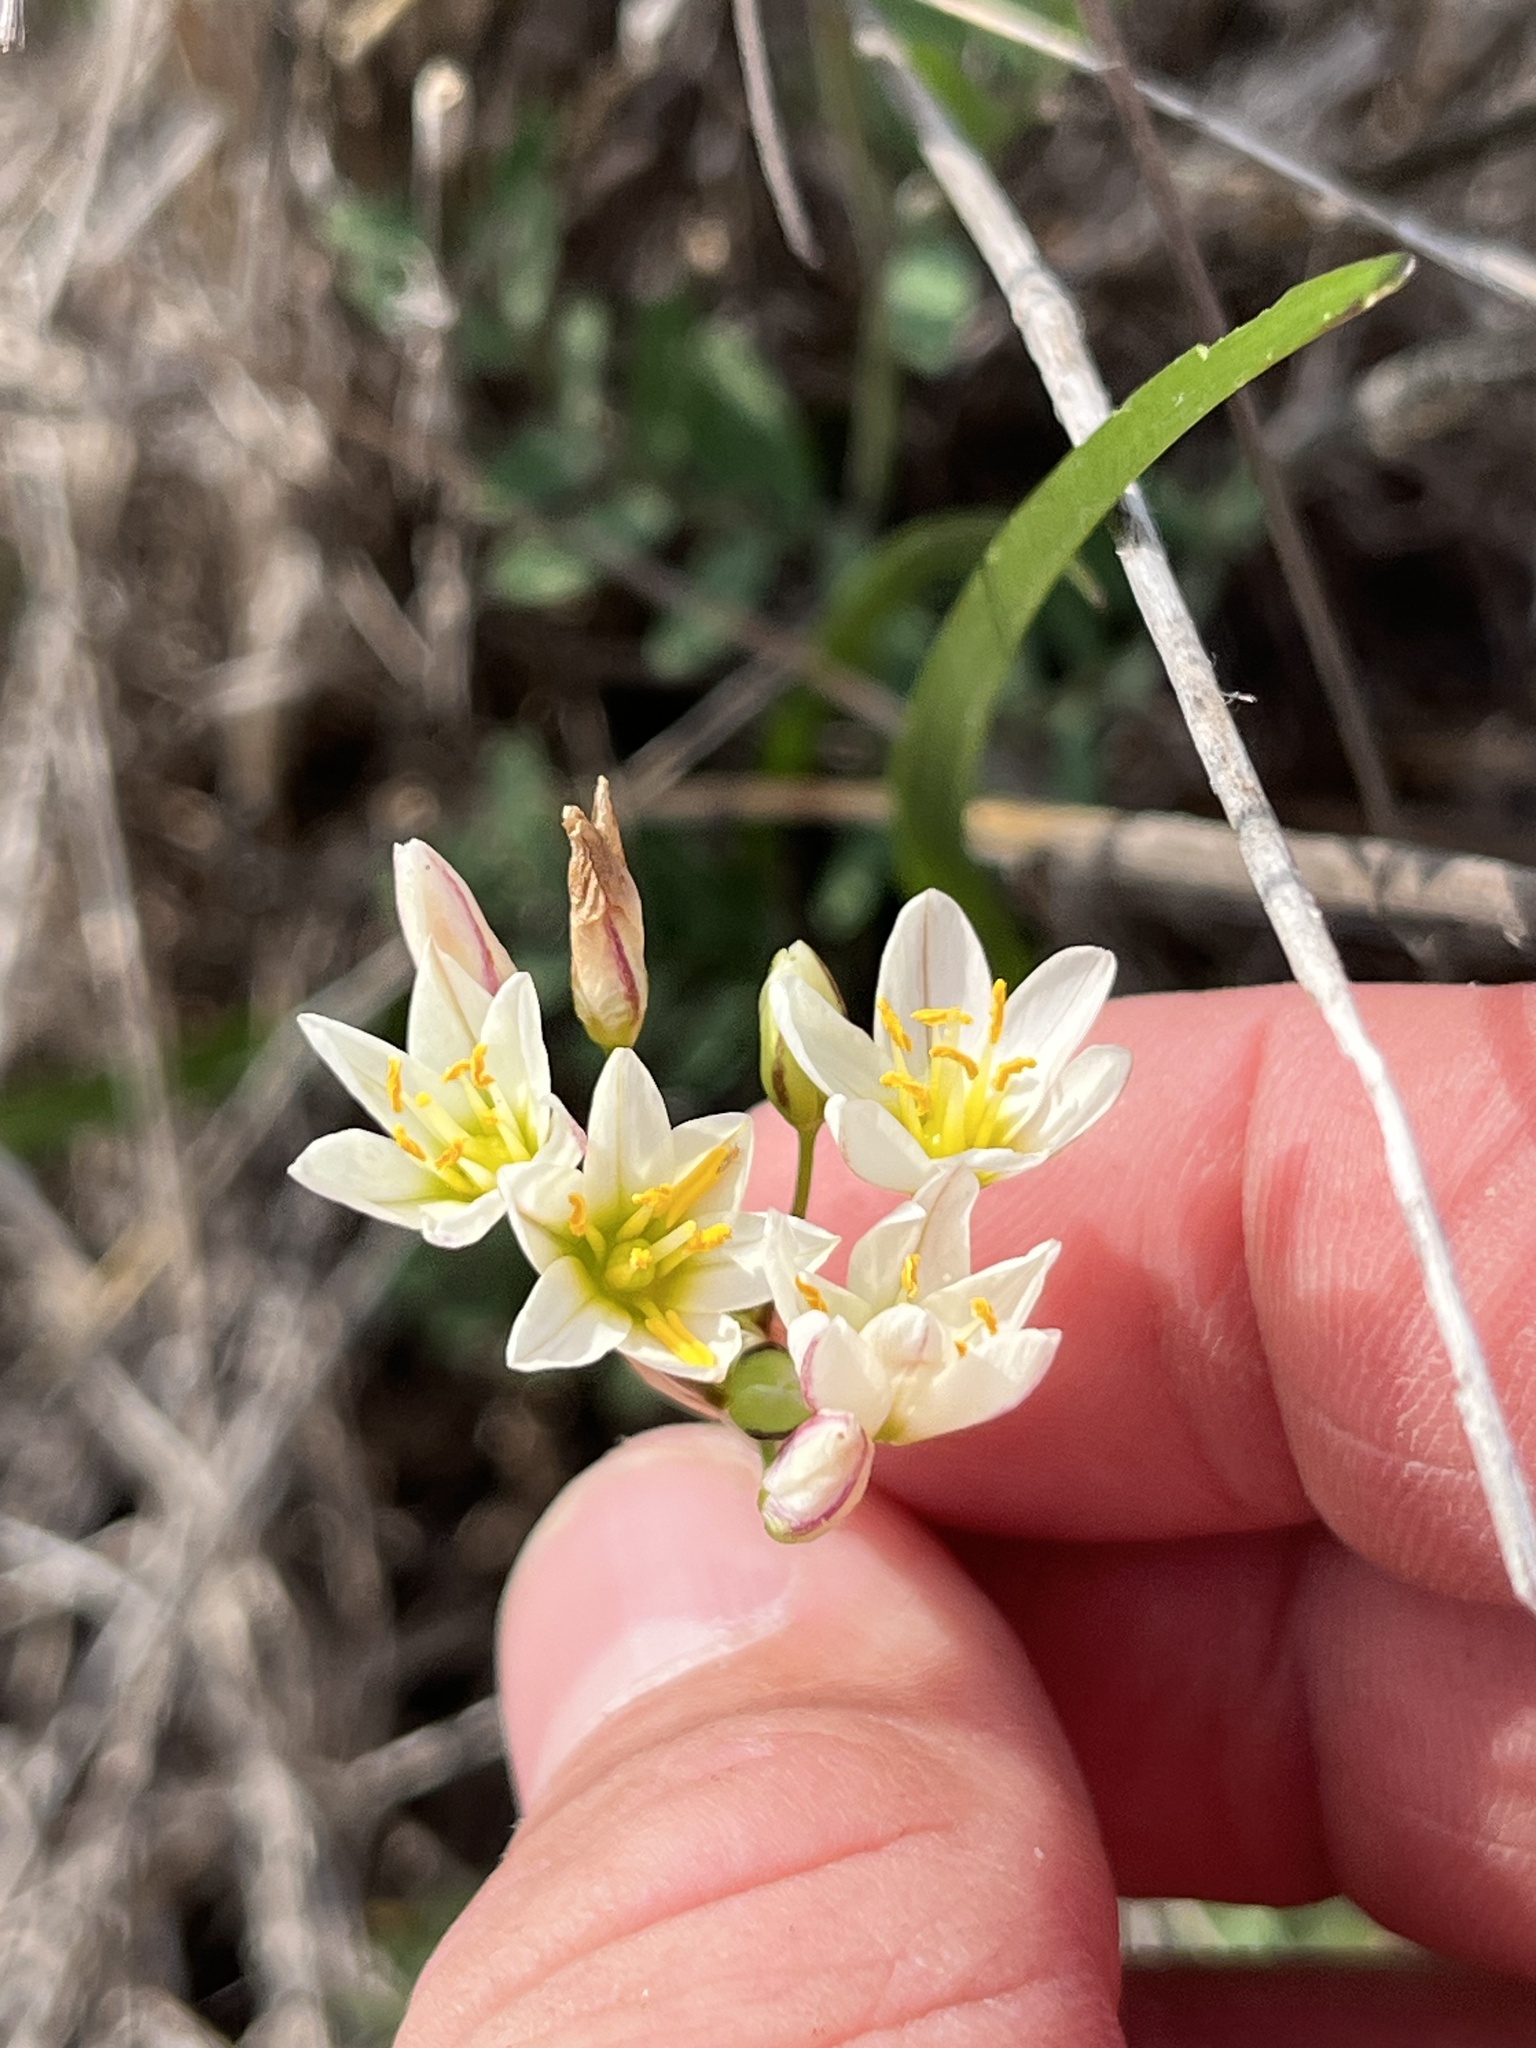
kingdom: Plantae
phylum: Tracheophyta
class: Liliopsida
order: Asparagales
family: Amaryllidaceae
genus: Nothoscordum
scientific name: Nothoscordum bivalve
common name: Crow-poison
